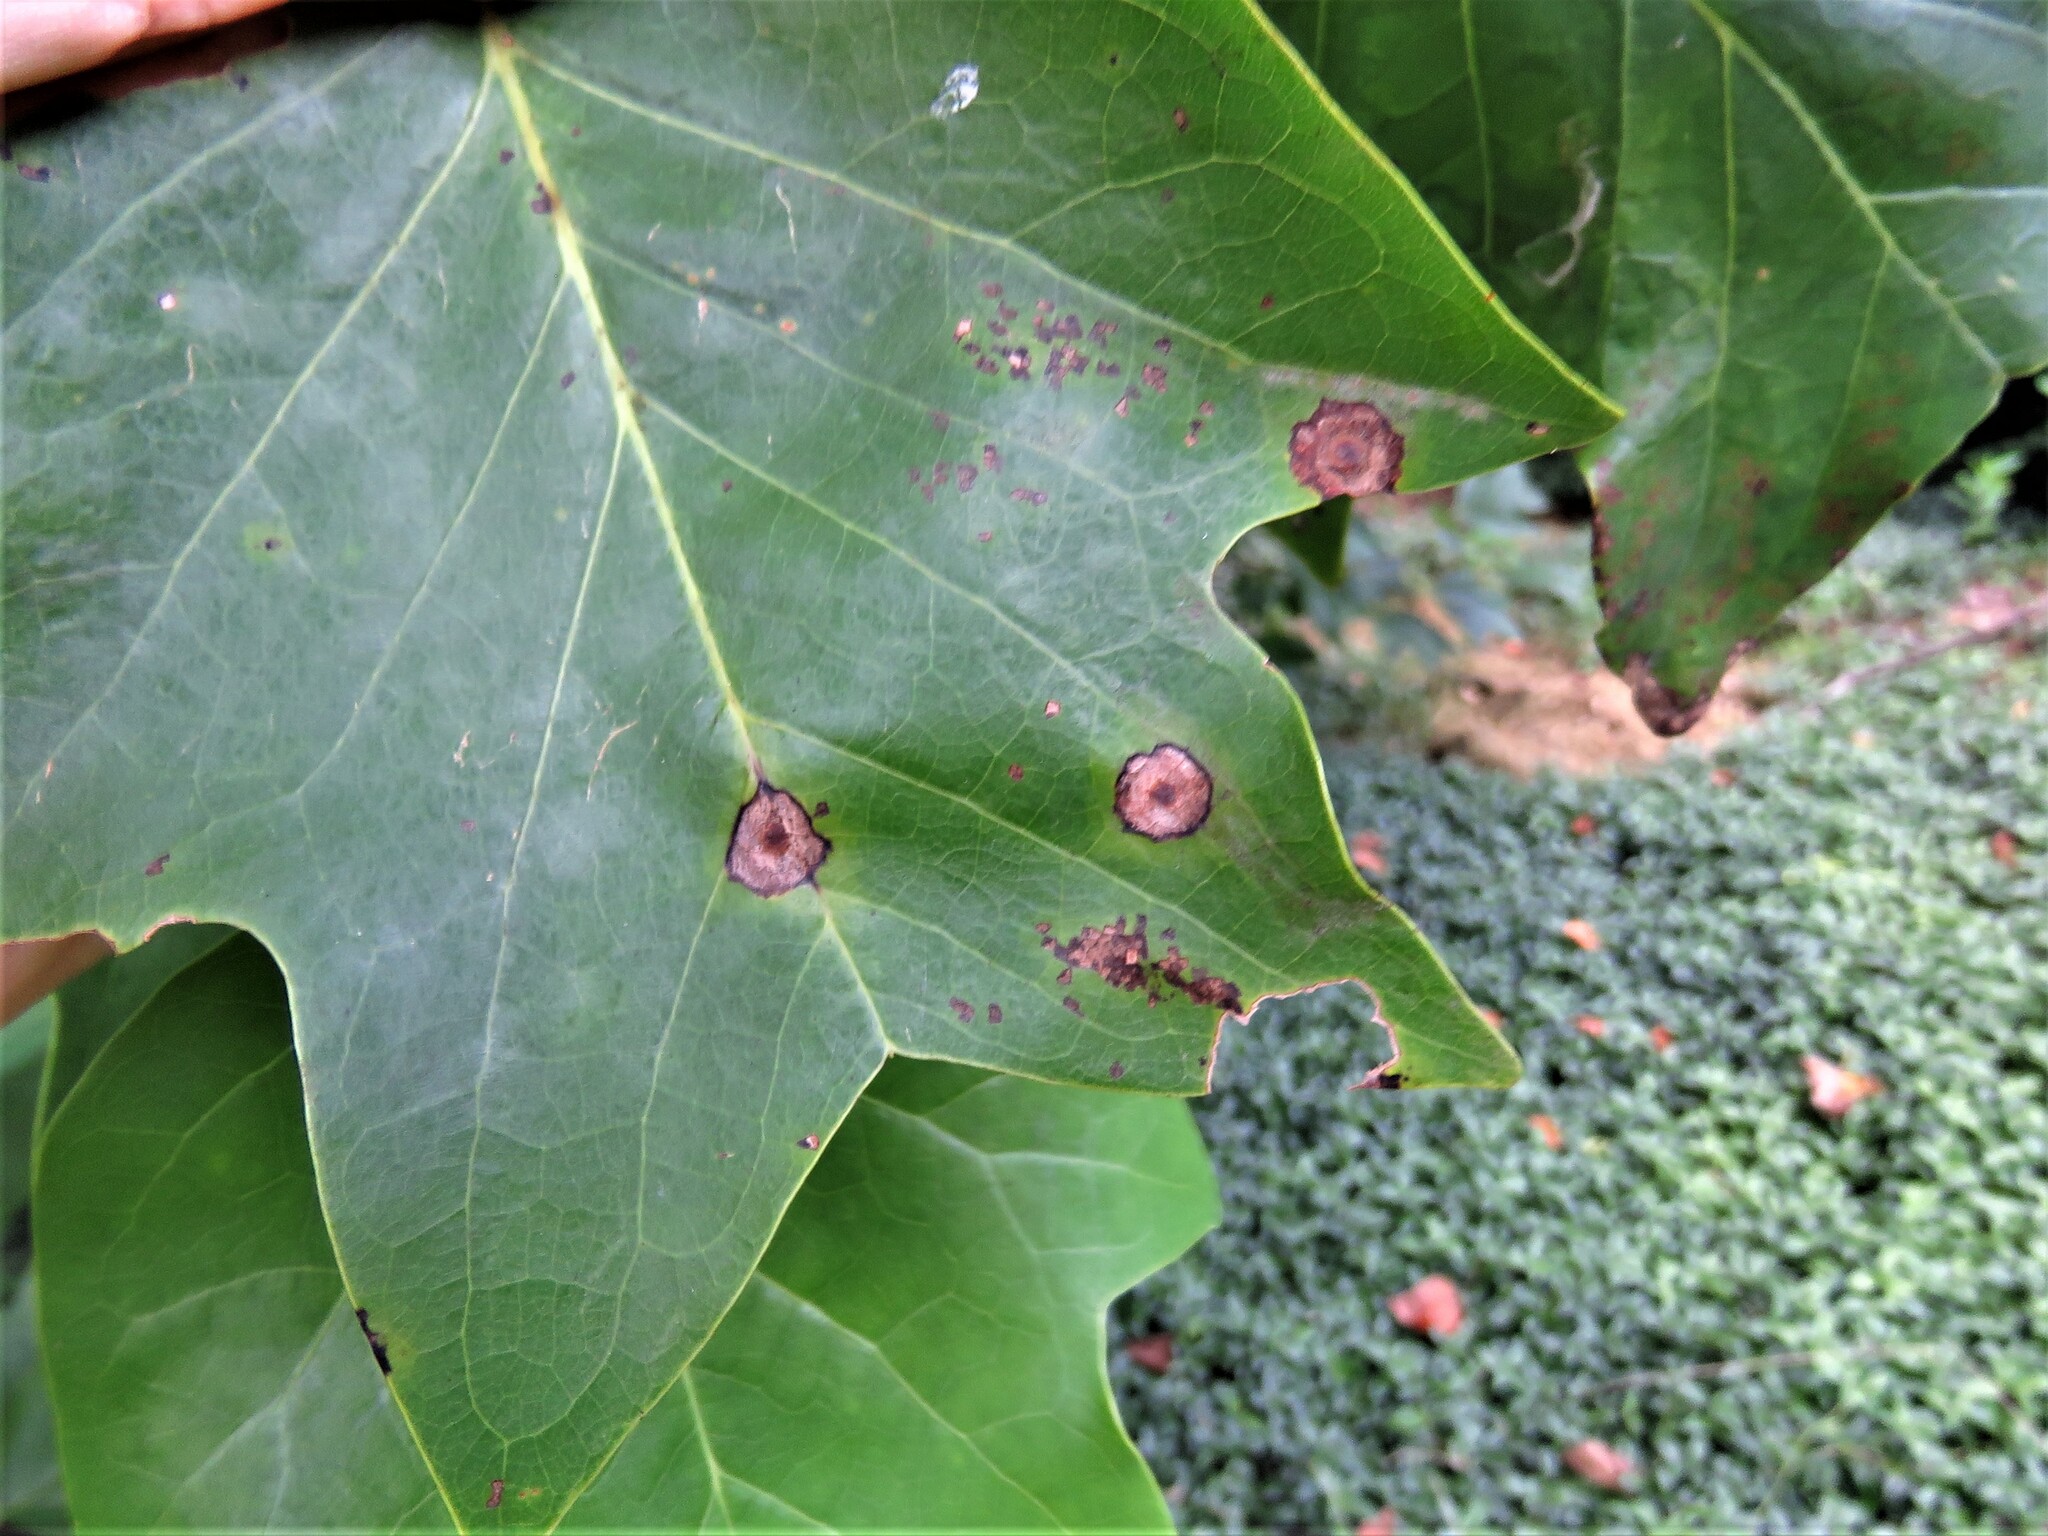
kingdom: Animalia
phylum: Arthropoda
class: Insecta
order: Diptera
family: Cecidomyiidae
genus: Resseliella
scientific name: Resseliella liriodendri
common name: Tulip tree leaf spot gall midge
